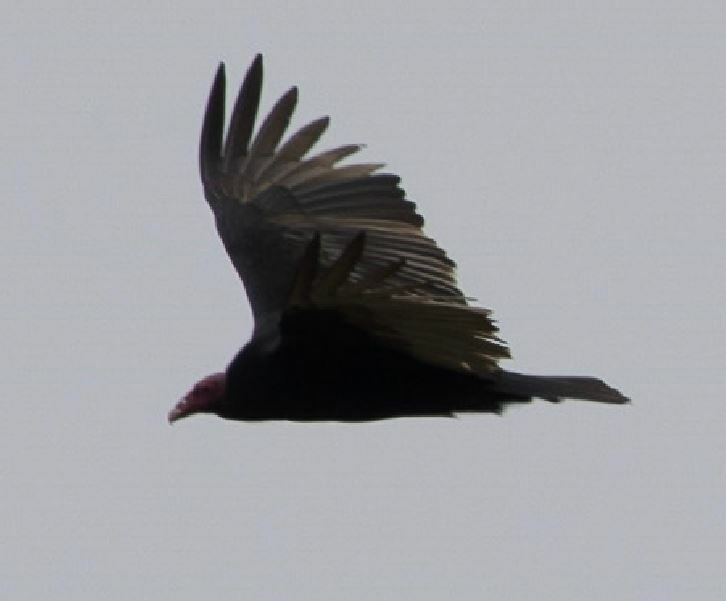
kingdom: Animalia
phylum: Chordata
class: Aves
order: Accipitriformes
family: Cathartidae
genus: Cathartes
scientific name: Cathartes aura
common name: Turkey vulture
